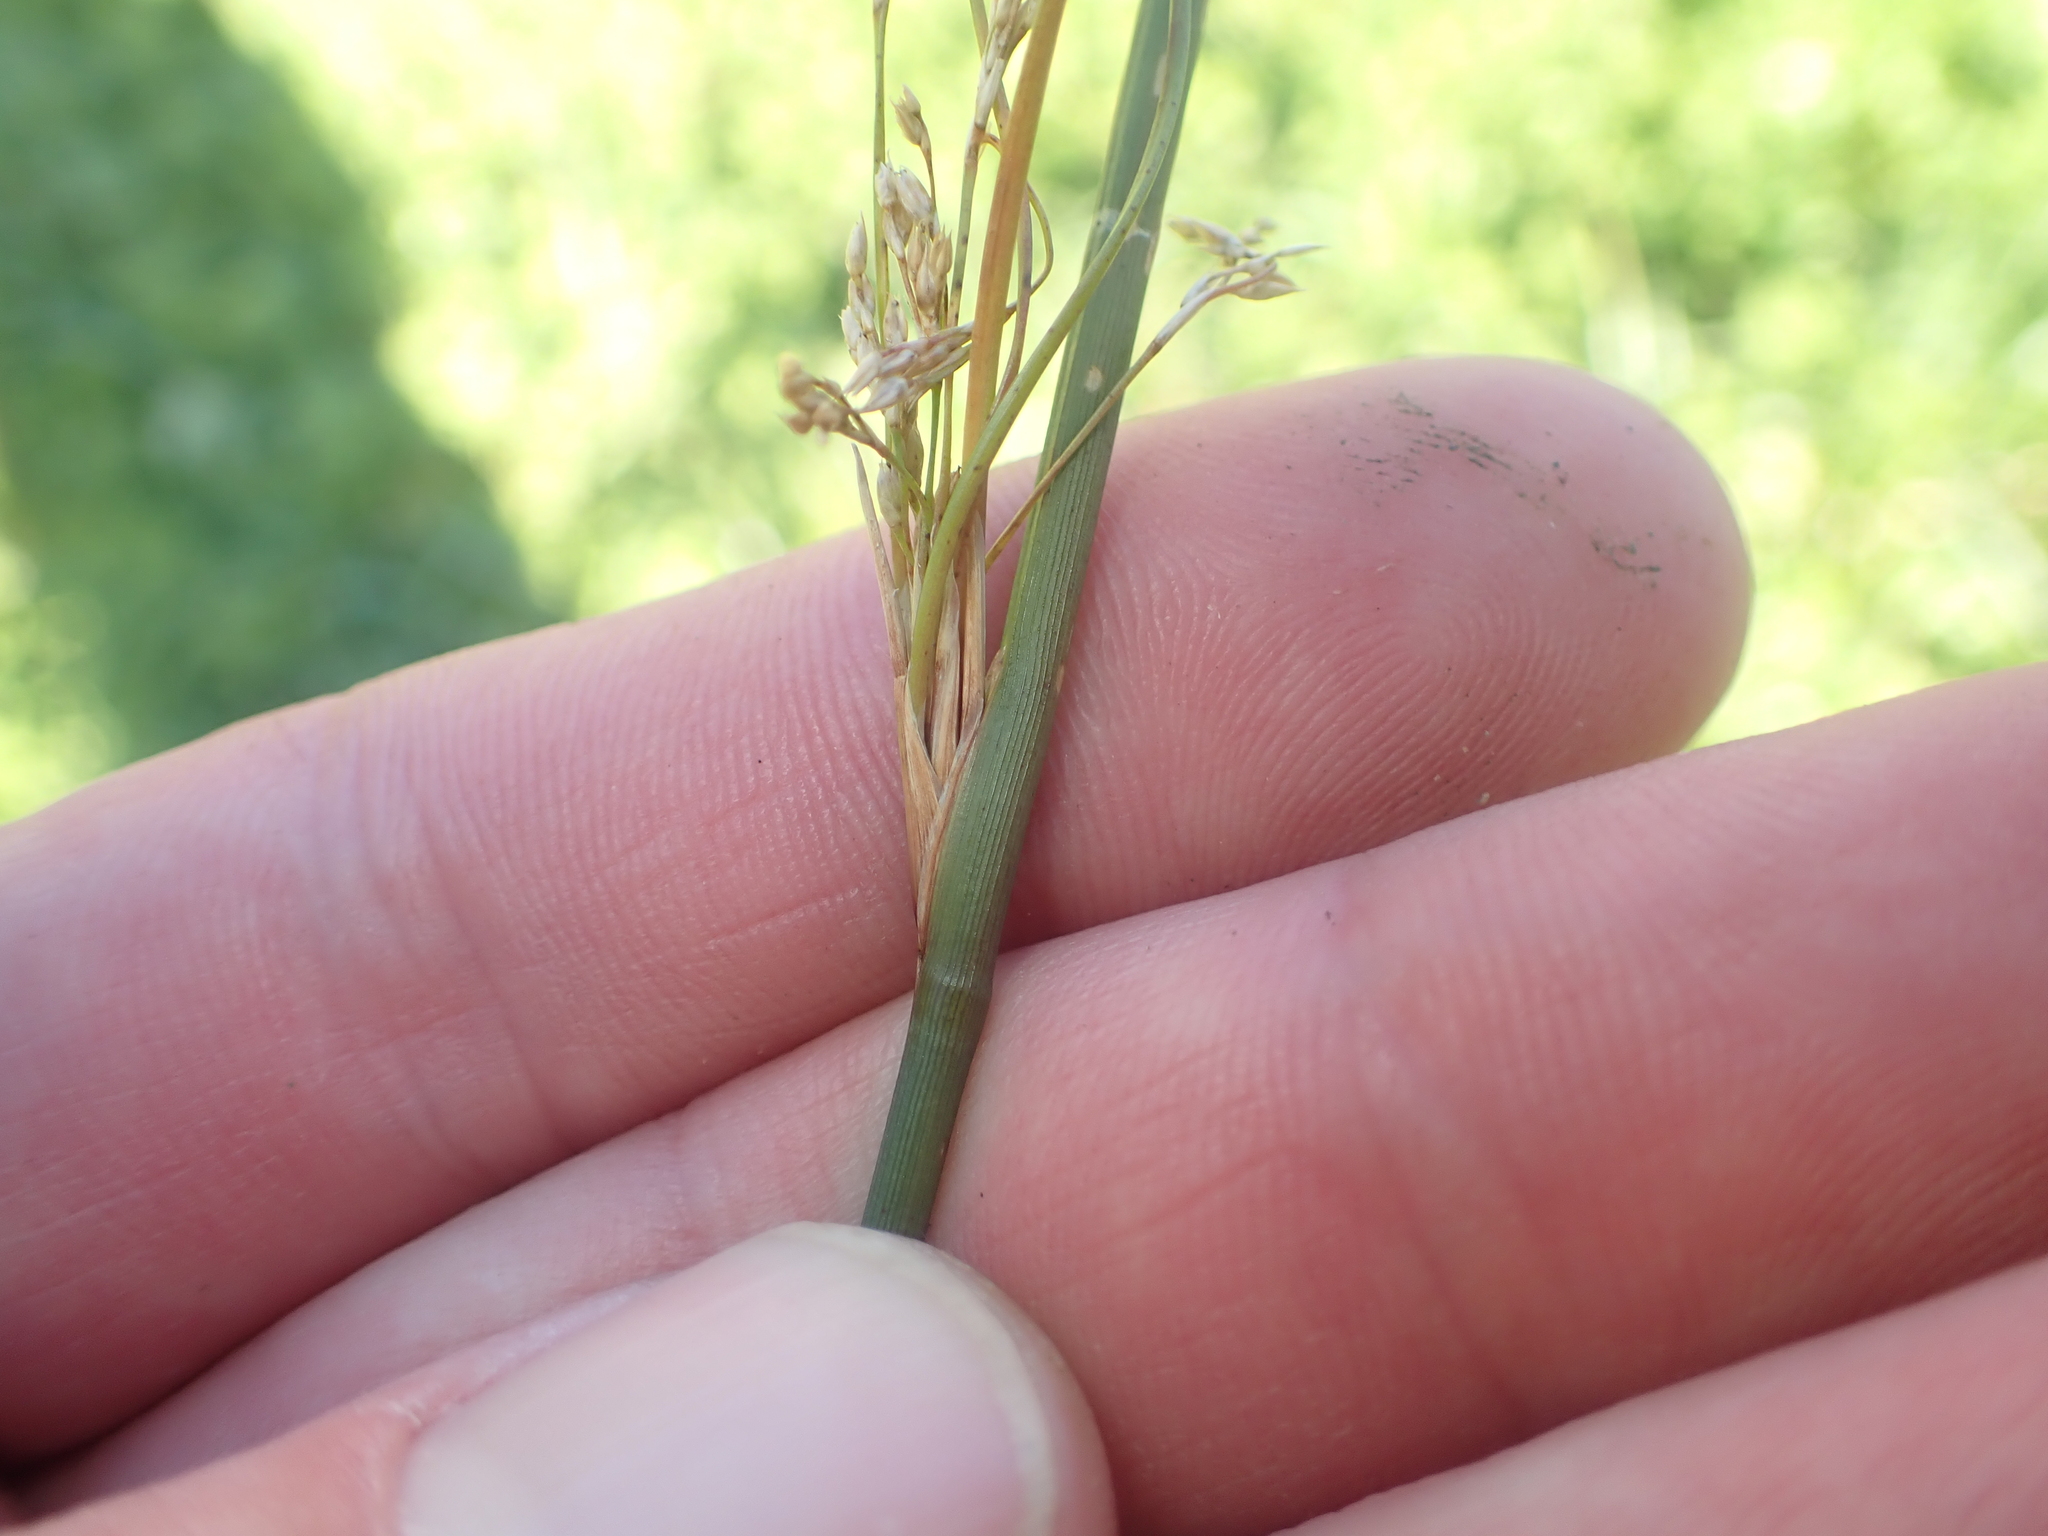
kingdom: Plantae
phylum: Tracheophyta
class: Liliopsida
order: Poales
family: Juncaceae
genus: Juncus
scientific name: Juncus sarophorus
